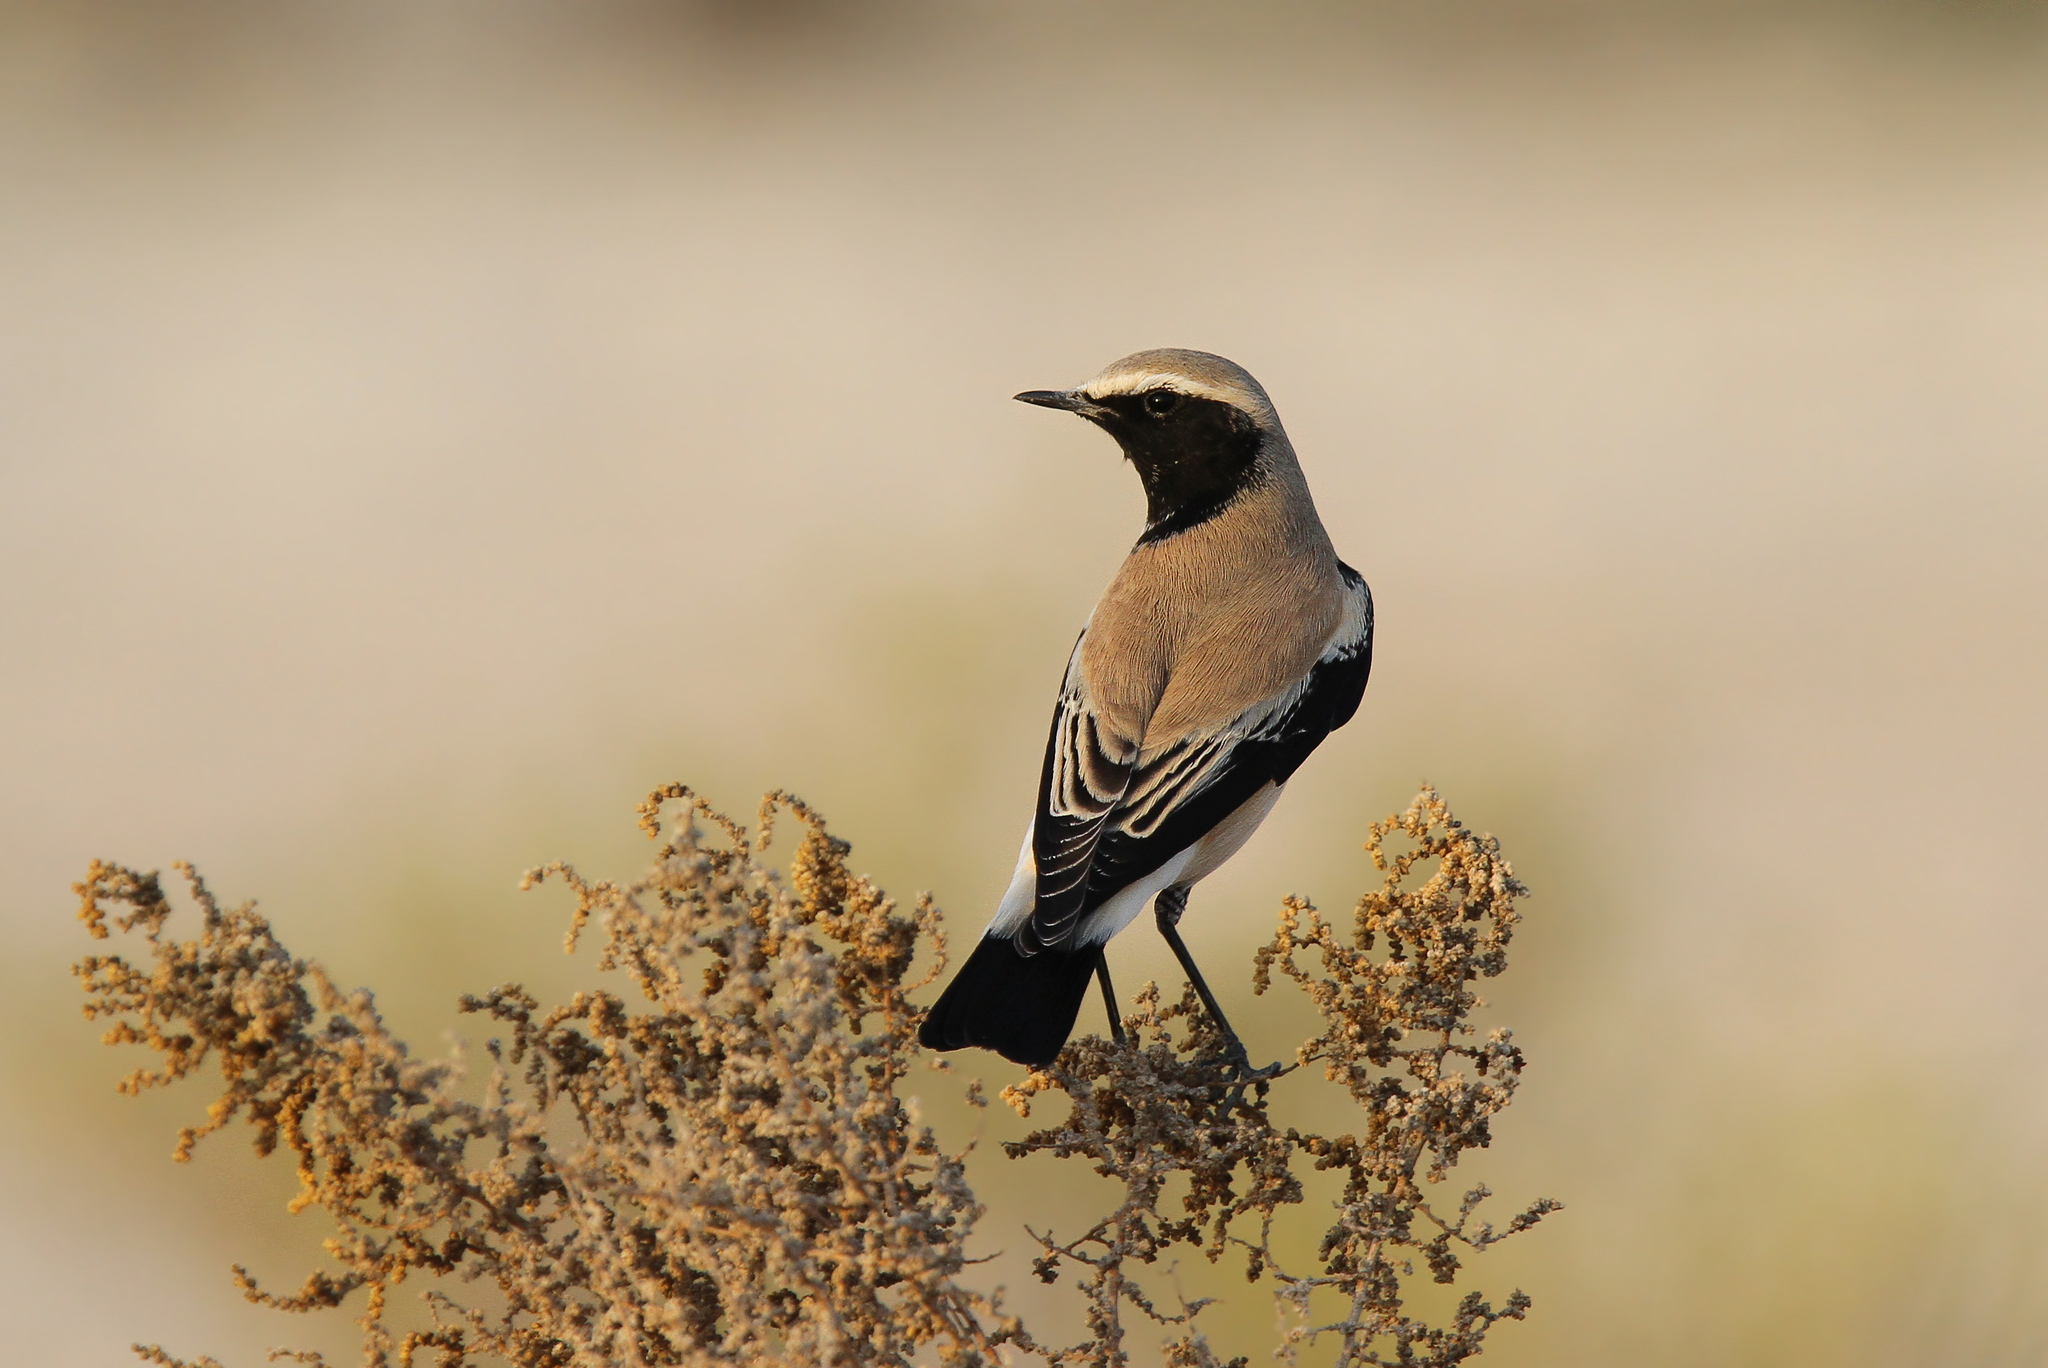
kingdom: Animalia
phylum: Chordata
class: Aves
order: Passeriformes
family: Muscicapidae
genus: Oenanthe
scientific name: Oenanthe deserti
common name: Desert wheatear
